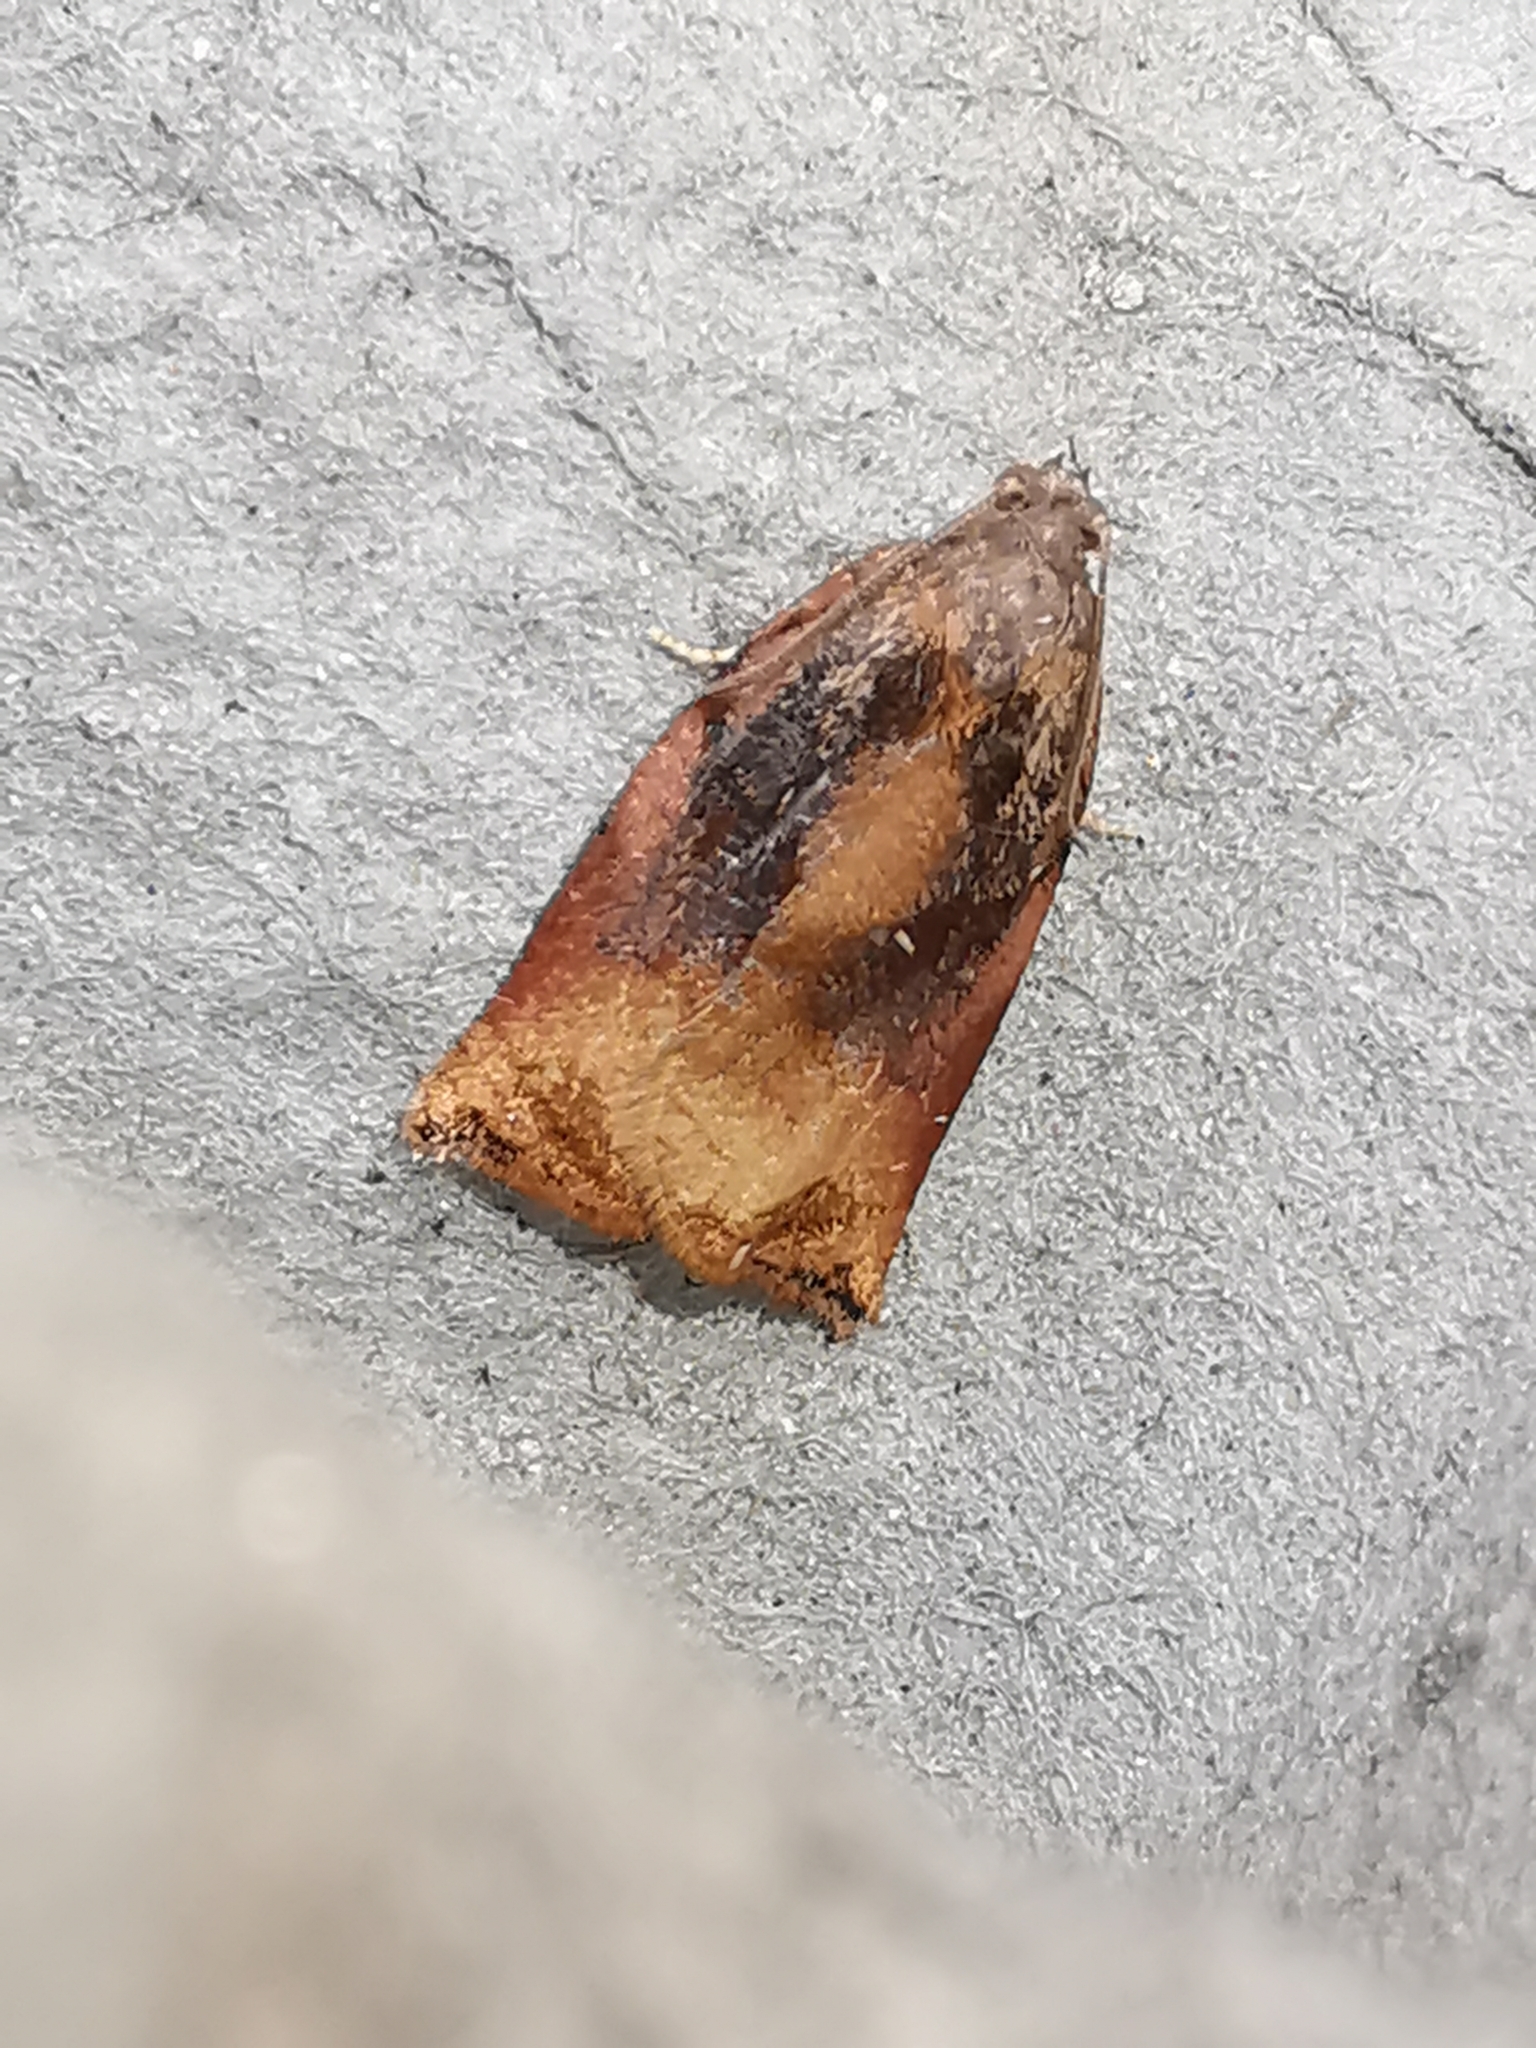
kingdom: Animalia
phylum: Arthropoda
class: Insecta
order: Lepidoptera
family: Tortricidae
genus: Archips
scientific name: Archips podana
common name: Large fruit-tree tortrix
